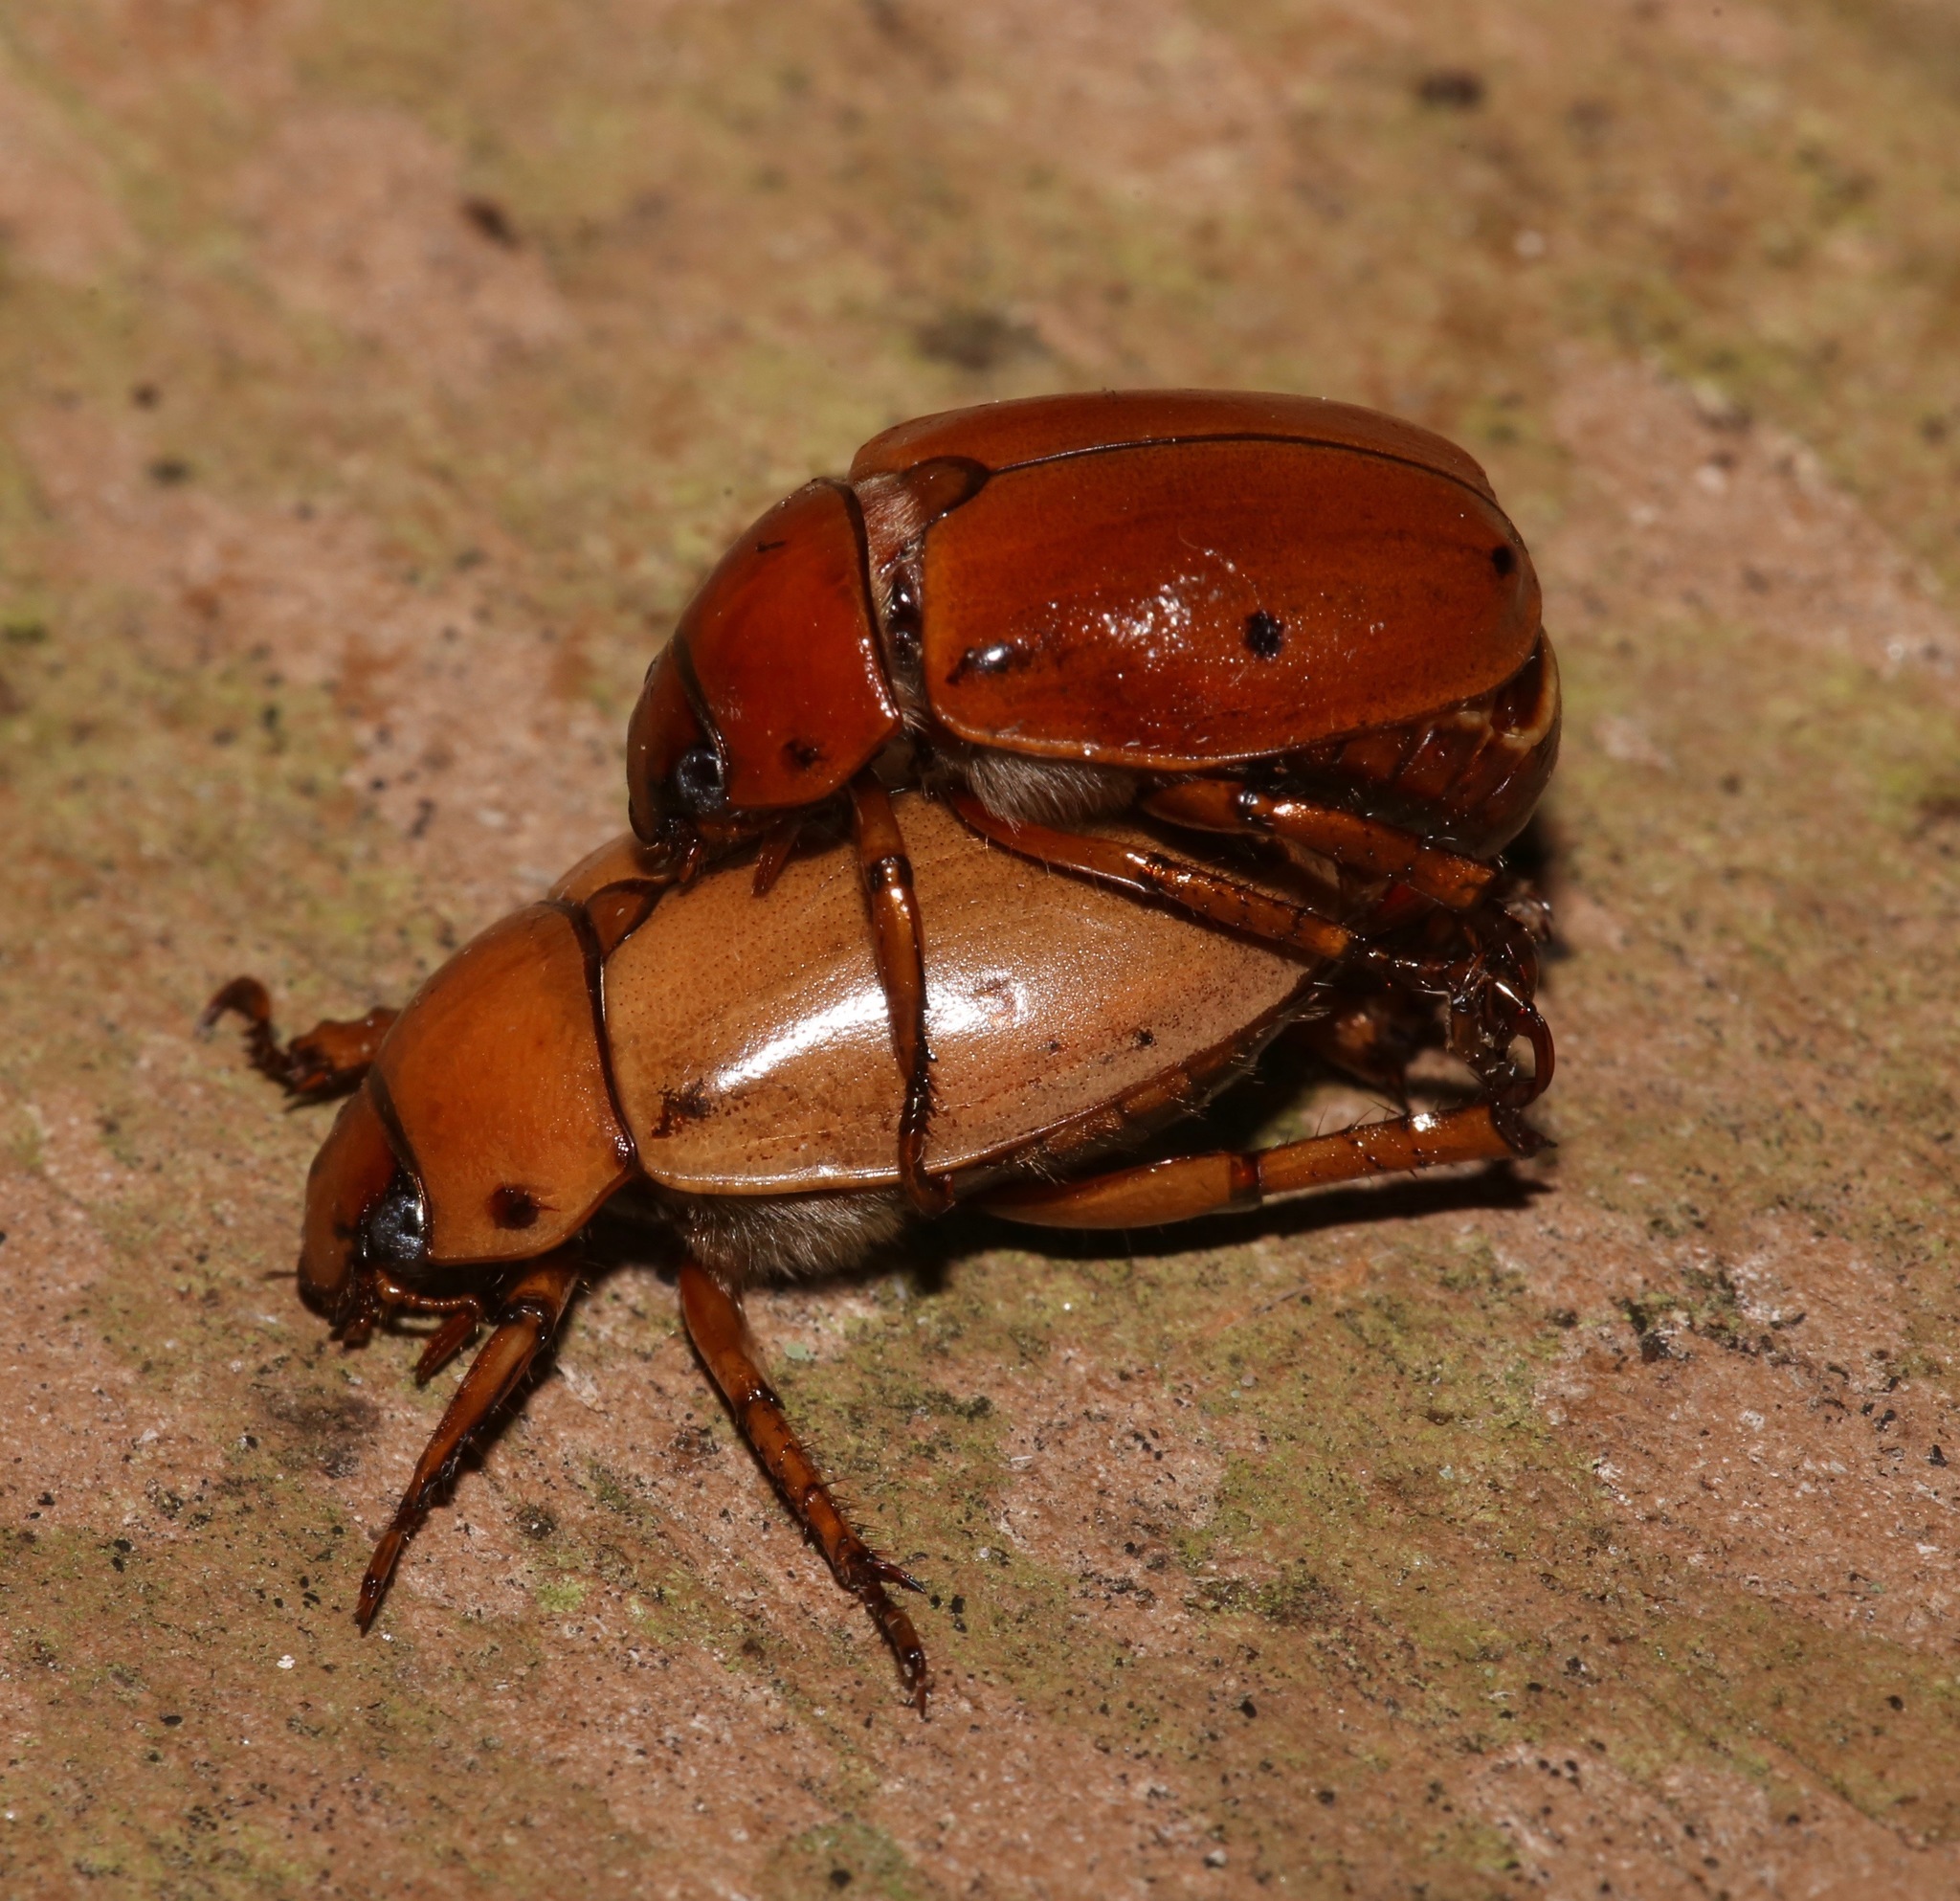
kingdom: Animalia
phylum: Arthropoda
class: Insecta
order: Coleoptera
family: Scarabaeidae
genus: Pelidnota
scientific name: Pelidnota punctata
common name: Grapevine beetle
